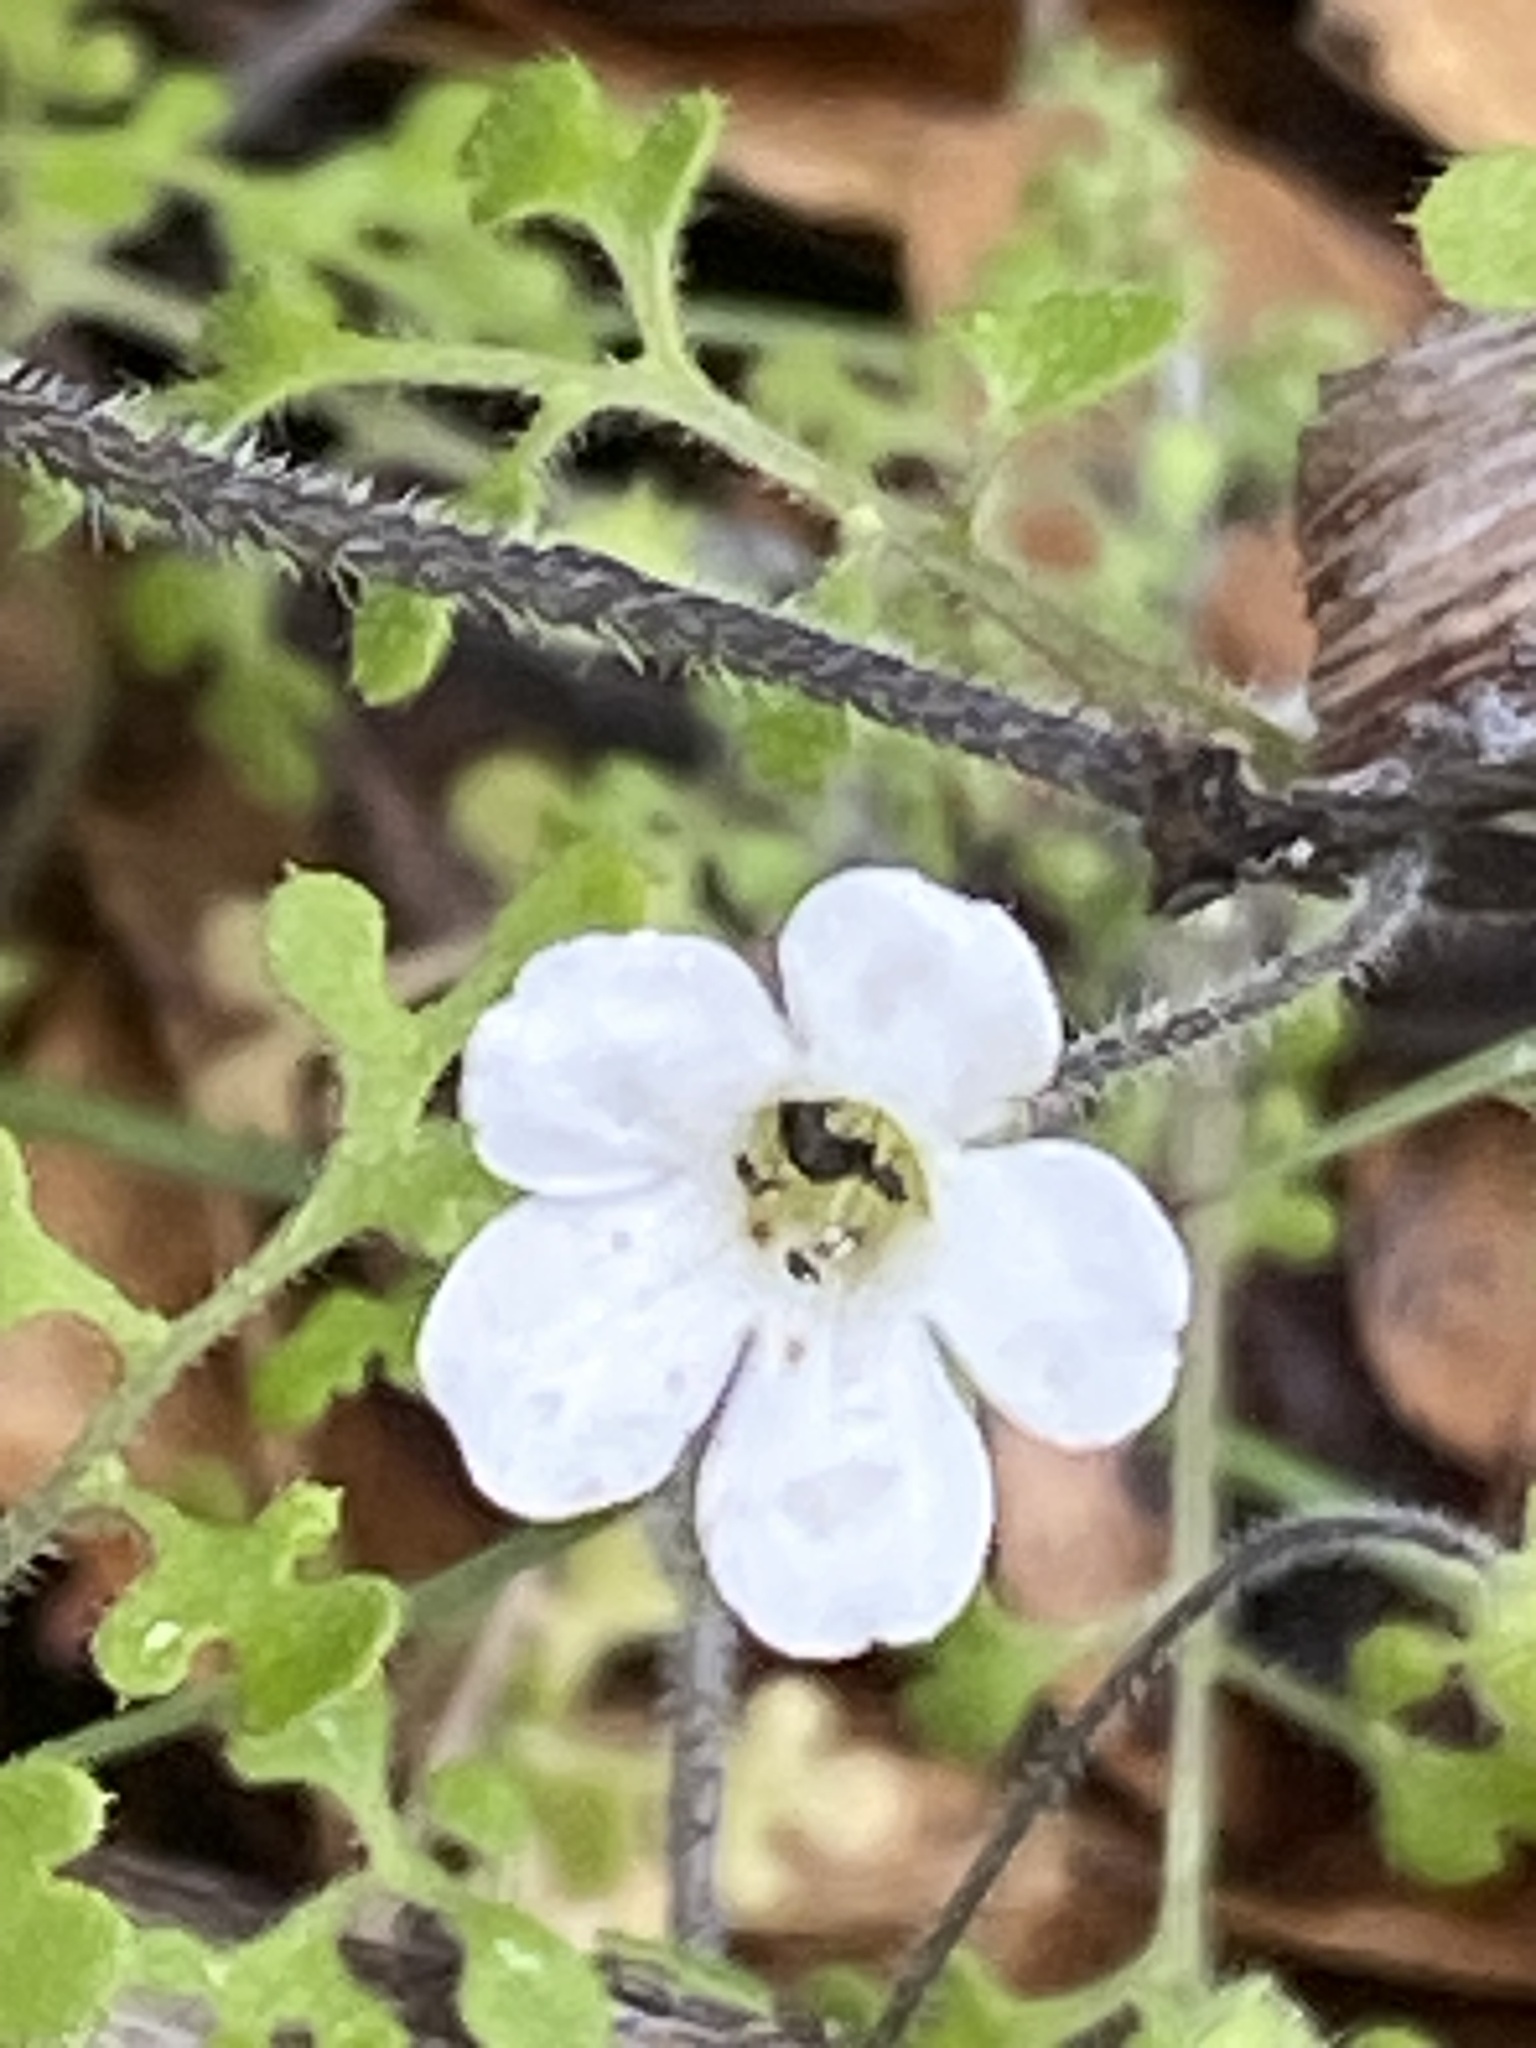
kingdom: Plantae
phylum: Tracheophyta
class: Magnoliopsida
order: Boraginales
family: Hydrophyllaceae
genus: Nemophila
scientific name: Nemophila heterophylla
